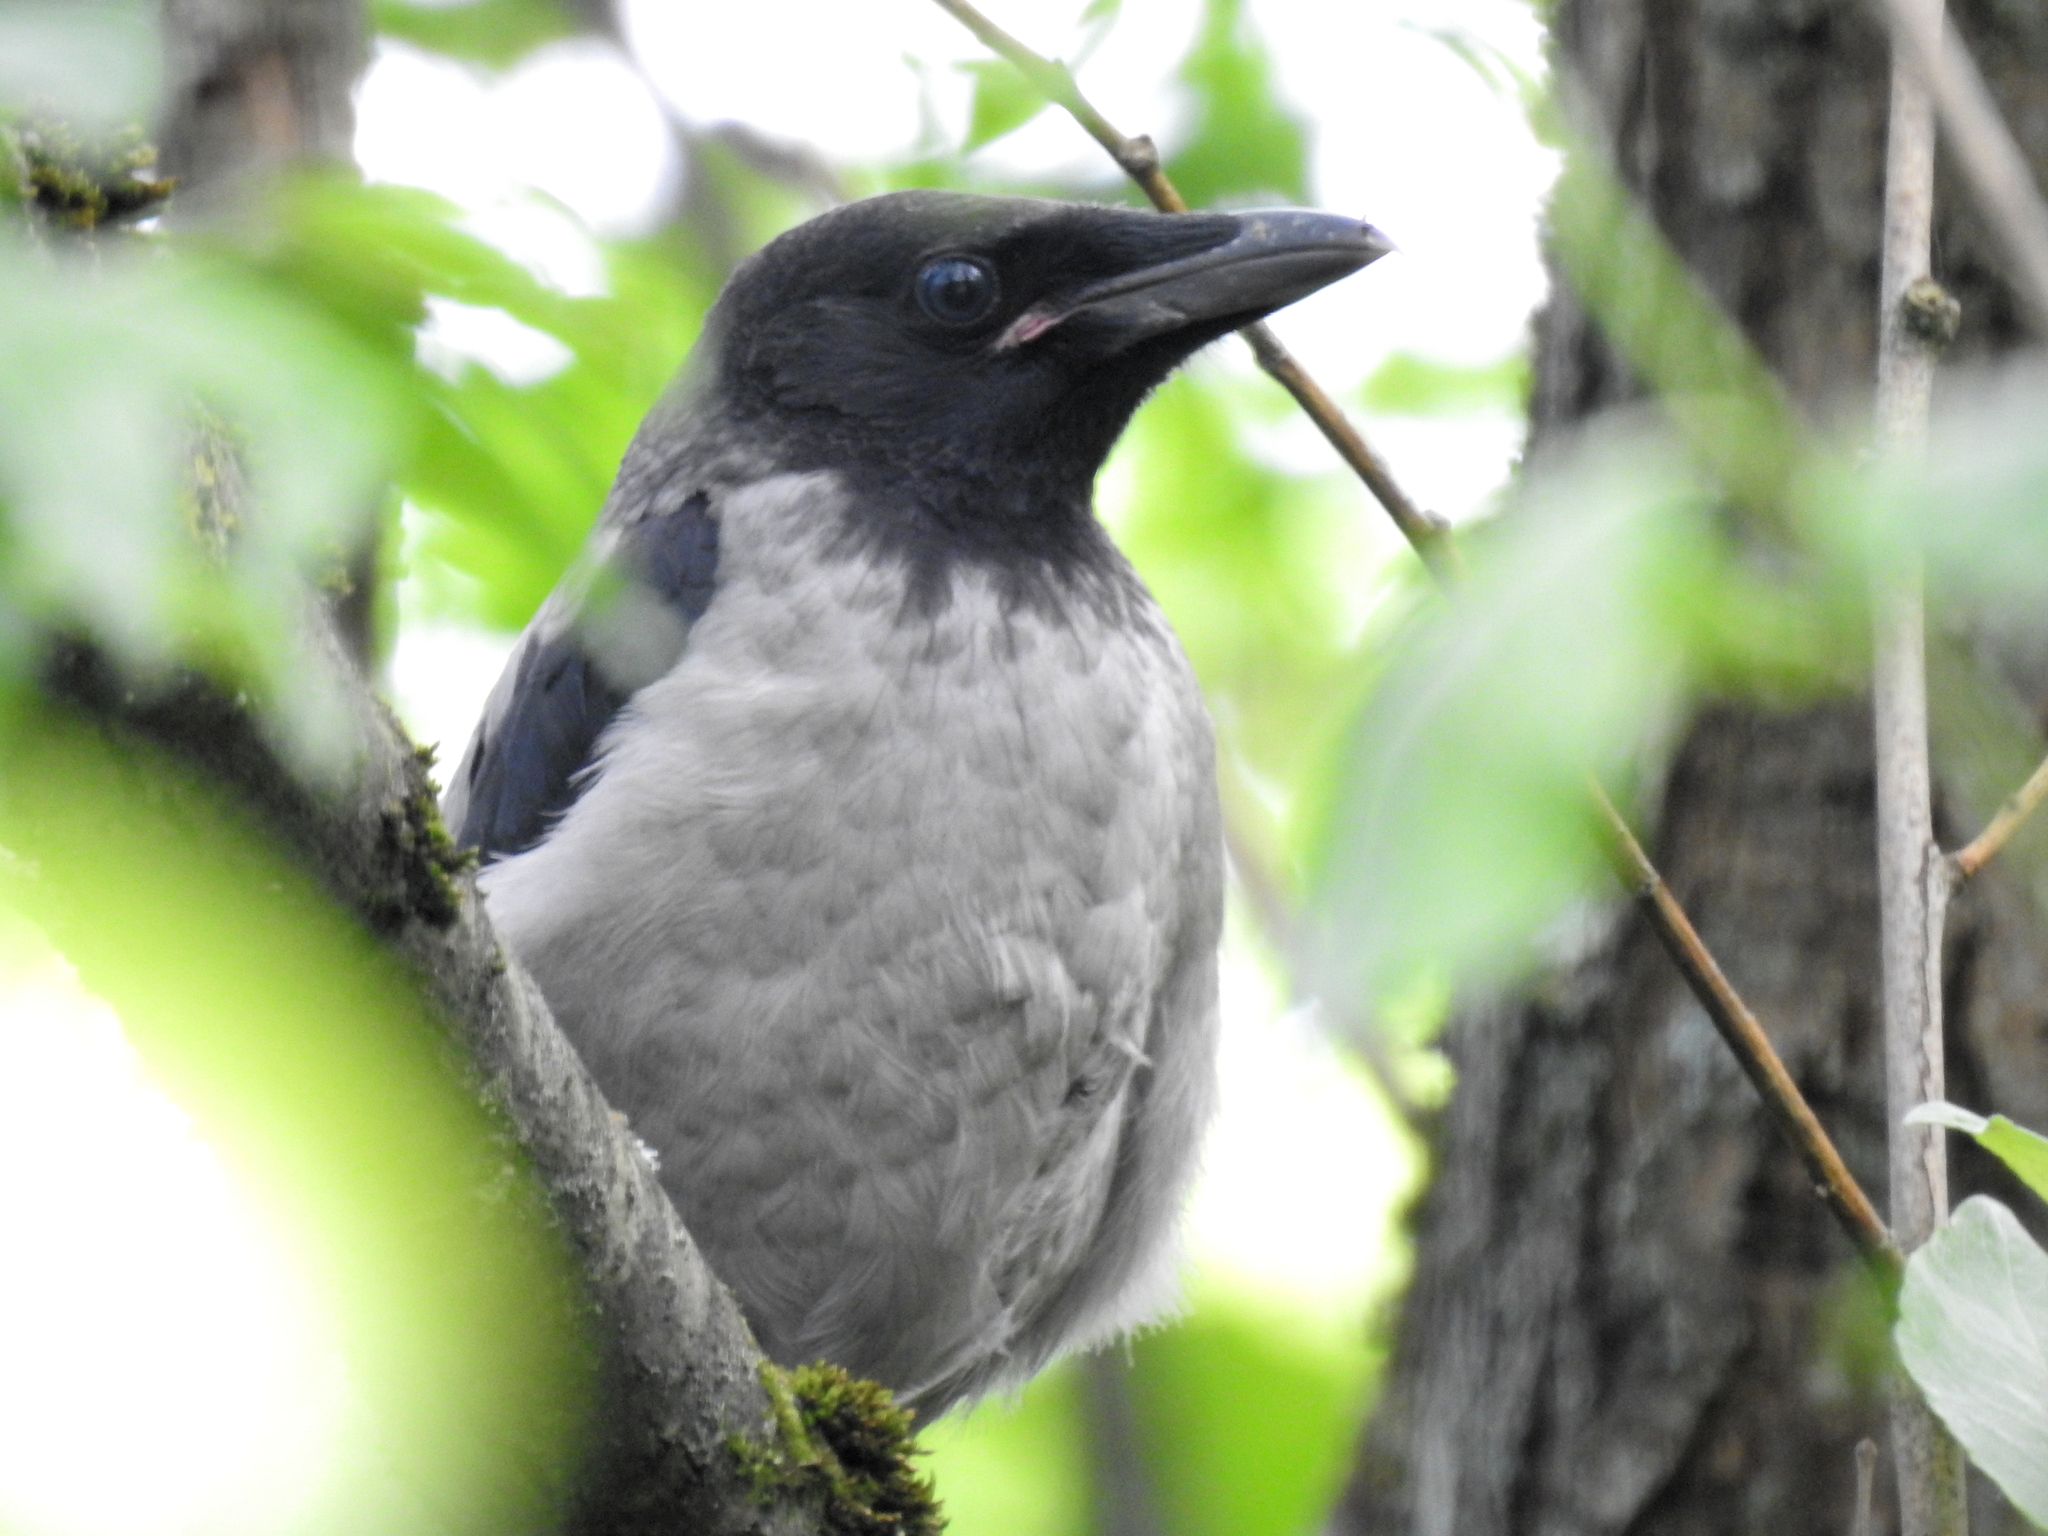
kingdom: Animalia
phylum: Chordata
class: Aves
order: Passeriformes
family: Corvidae
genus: Corvus
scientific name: Corvus cornix
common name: Hooded crow
